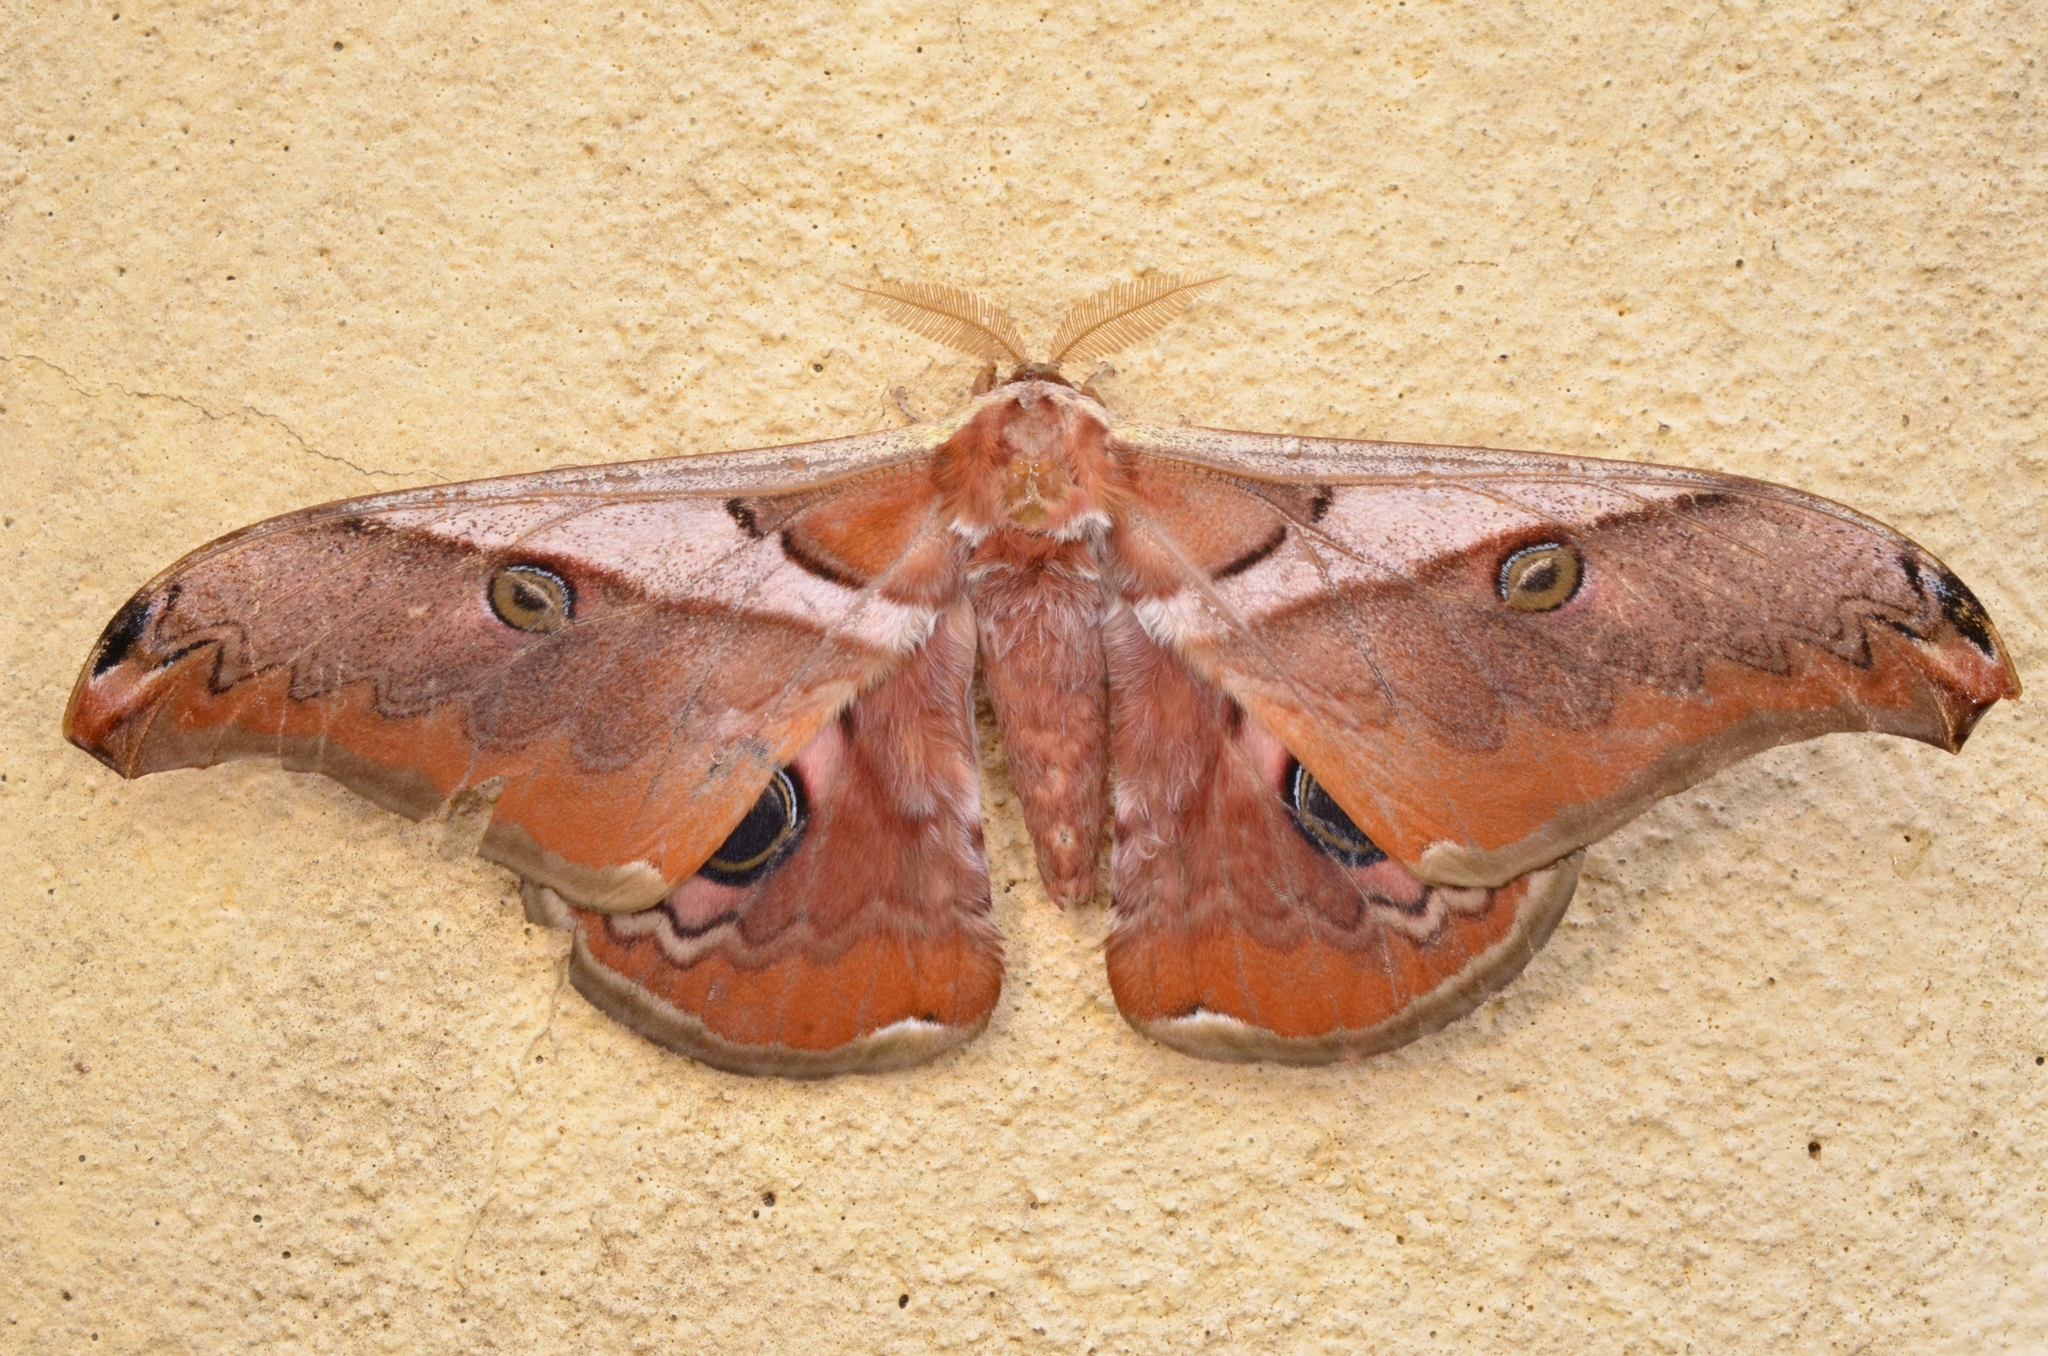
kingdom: Animalia
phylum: Arthropoda
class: Insecta
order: Lepidoptera
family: Saturniidae
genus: Saturnia
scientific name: Saturnia simla
